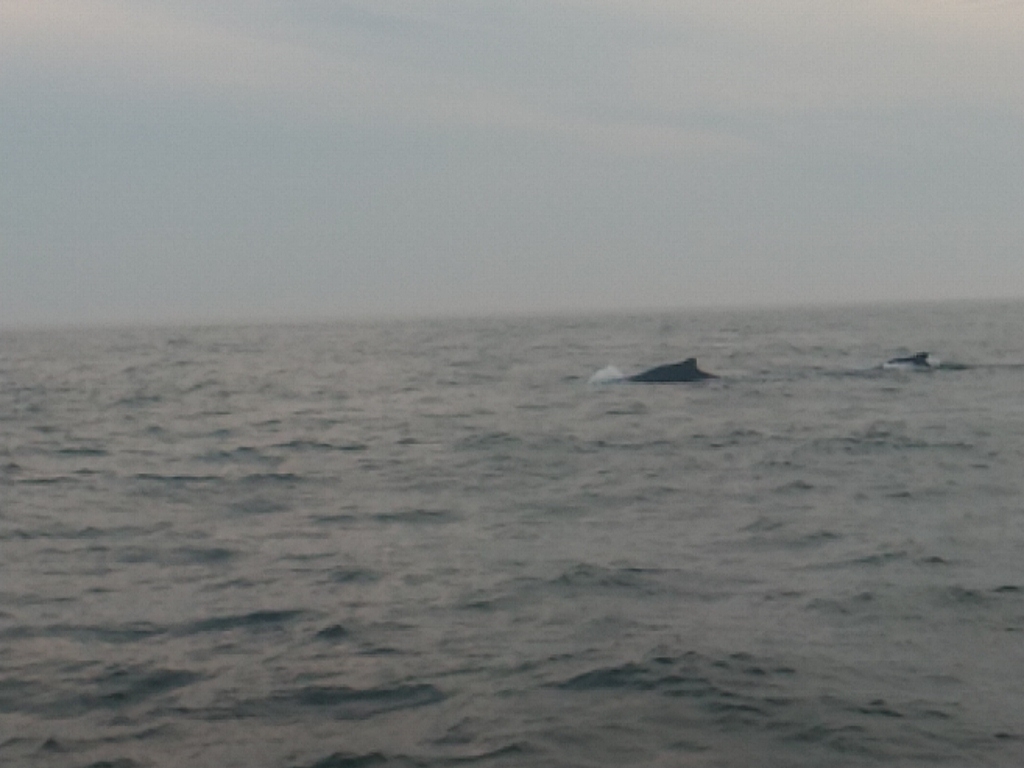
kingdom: Animalia
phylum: Chordata
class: Mammalia
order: Cetacea
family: Balaenopteridae
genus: Megaptera
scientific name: Megaptera novaeangliae
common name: Humpback whale
